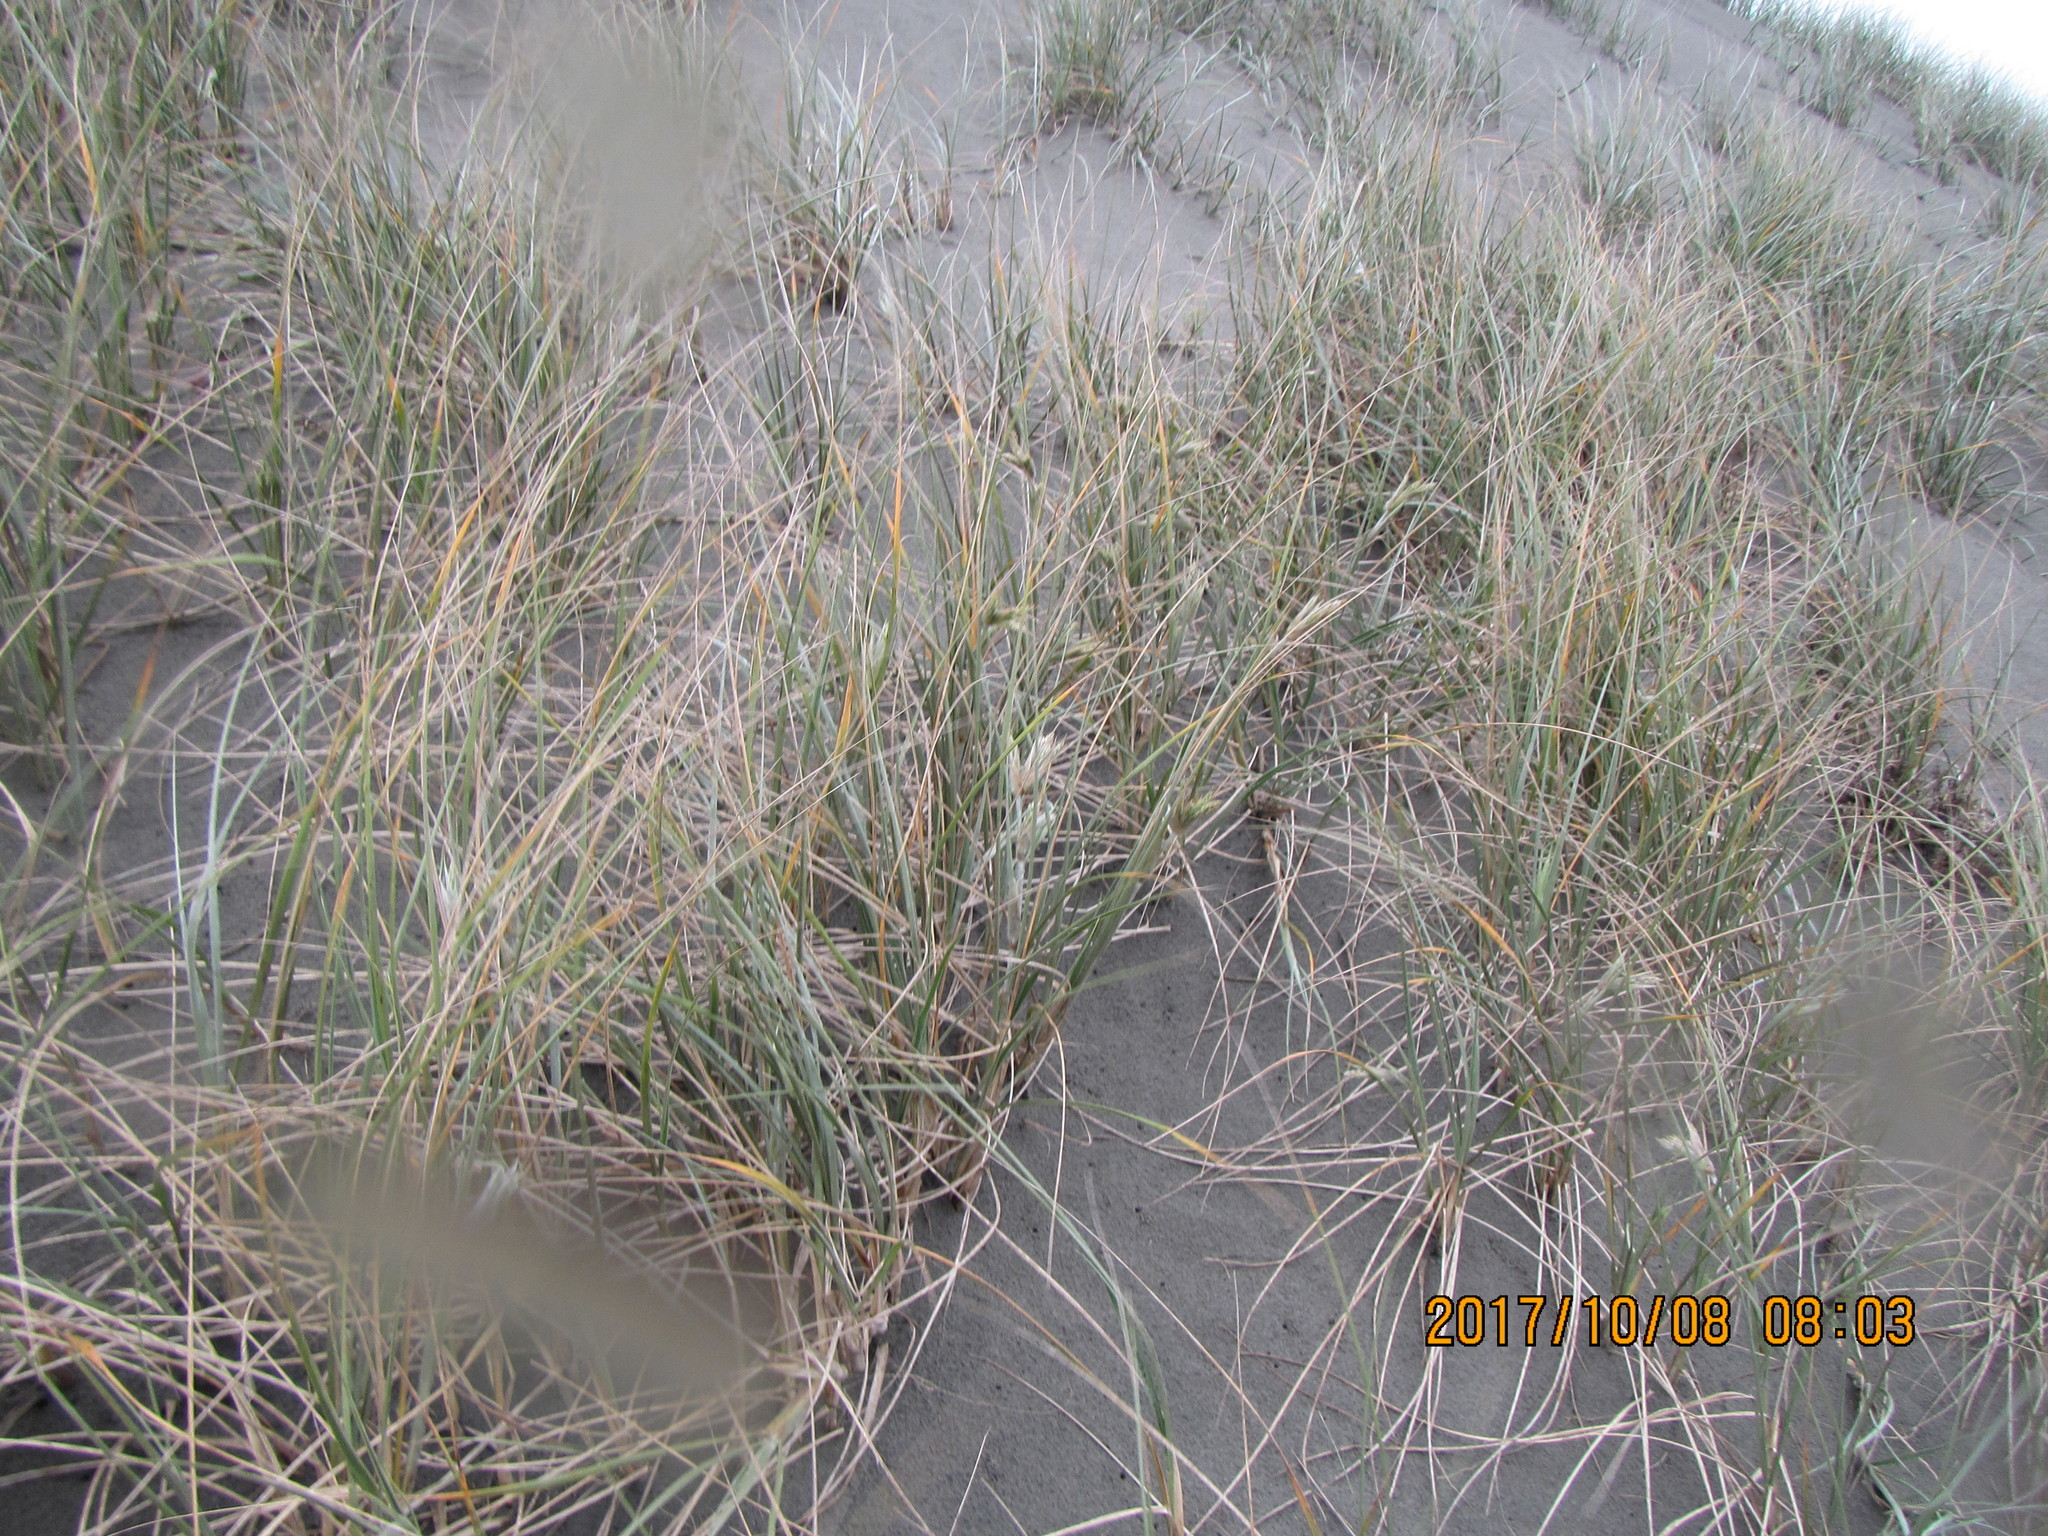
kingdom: Plantae
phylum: Tracheophyta
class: Liliopsida
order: Poales
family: Poaceae
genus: Spinifex
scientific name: Spinifex sericeus
